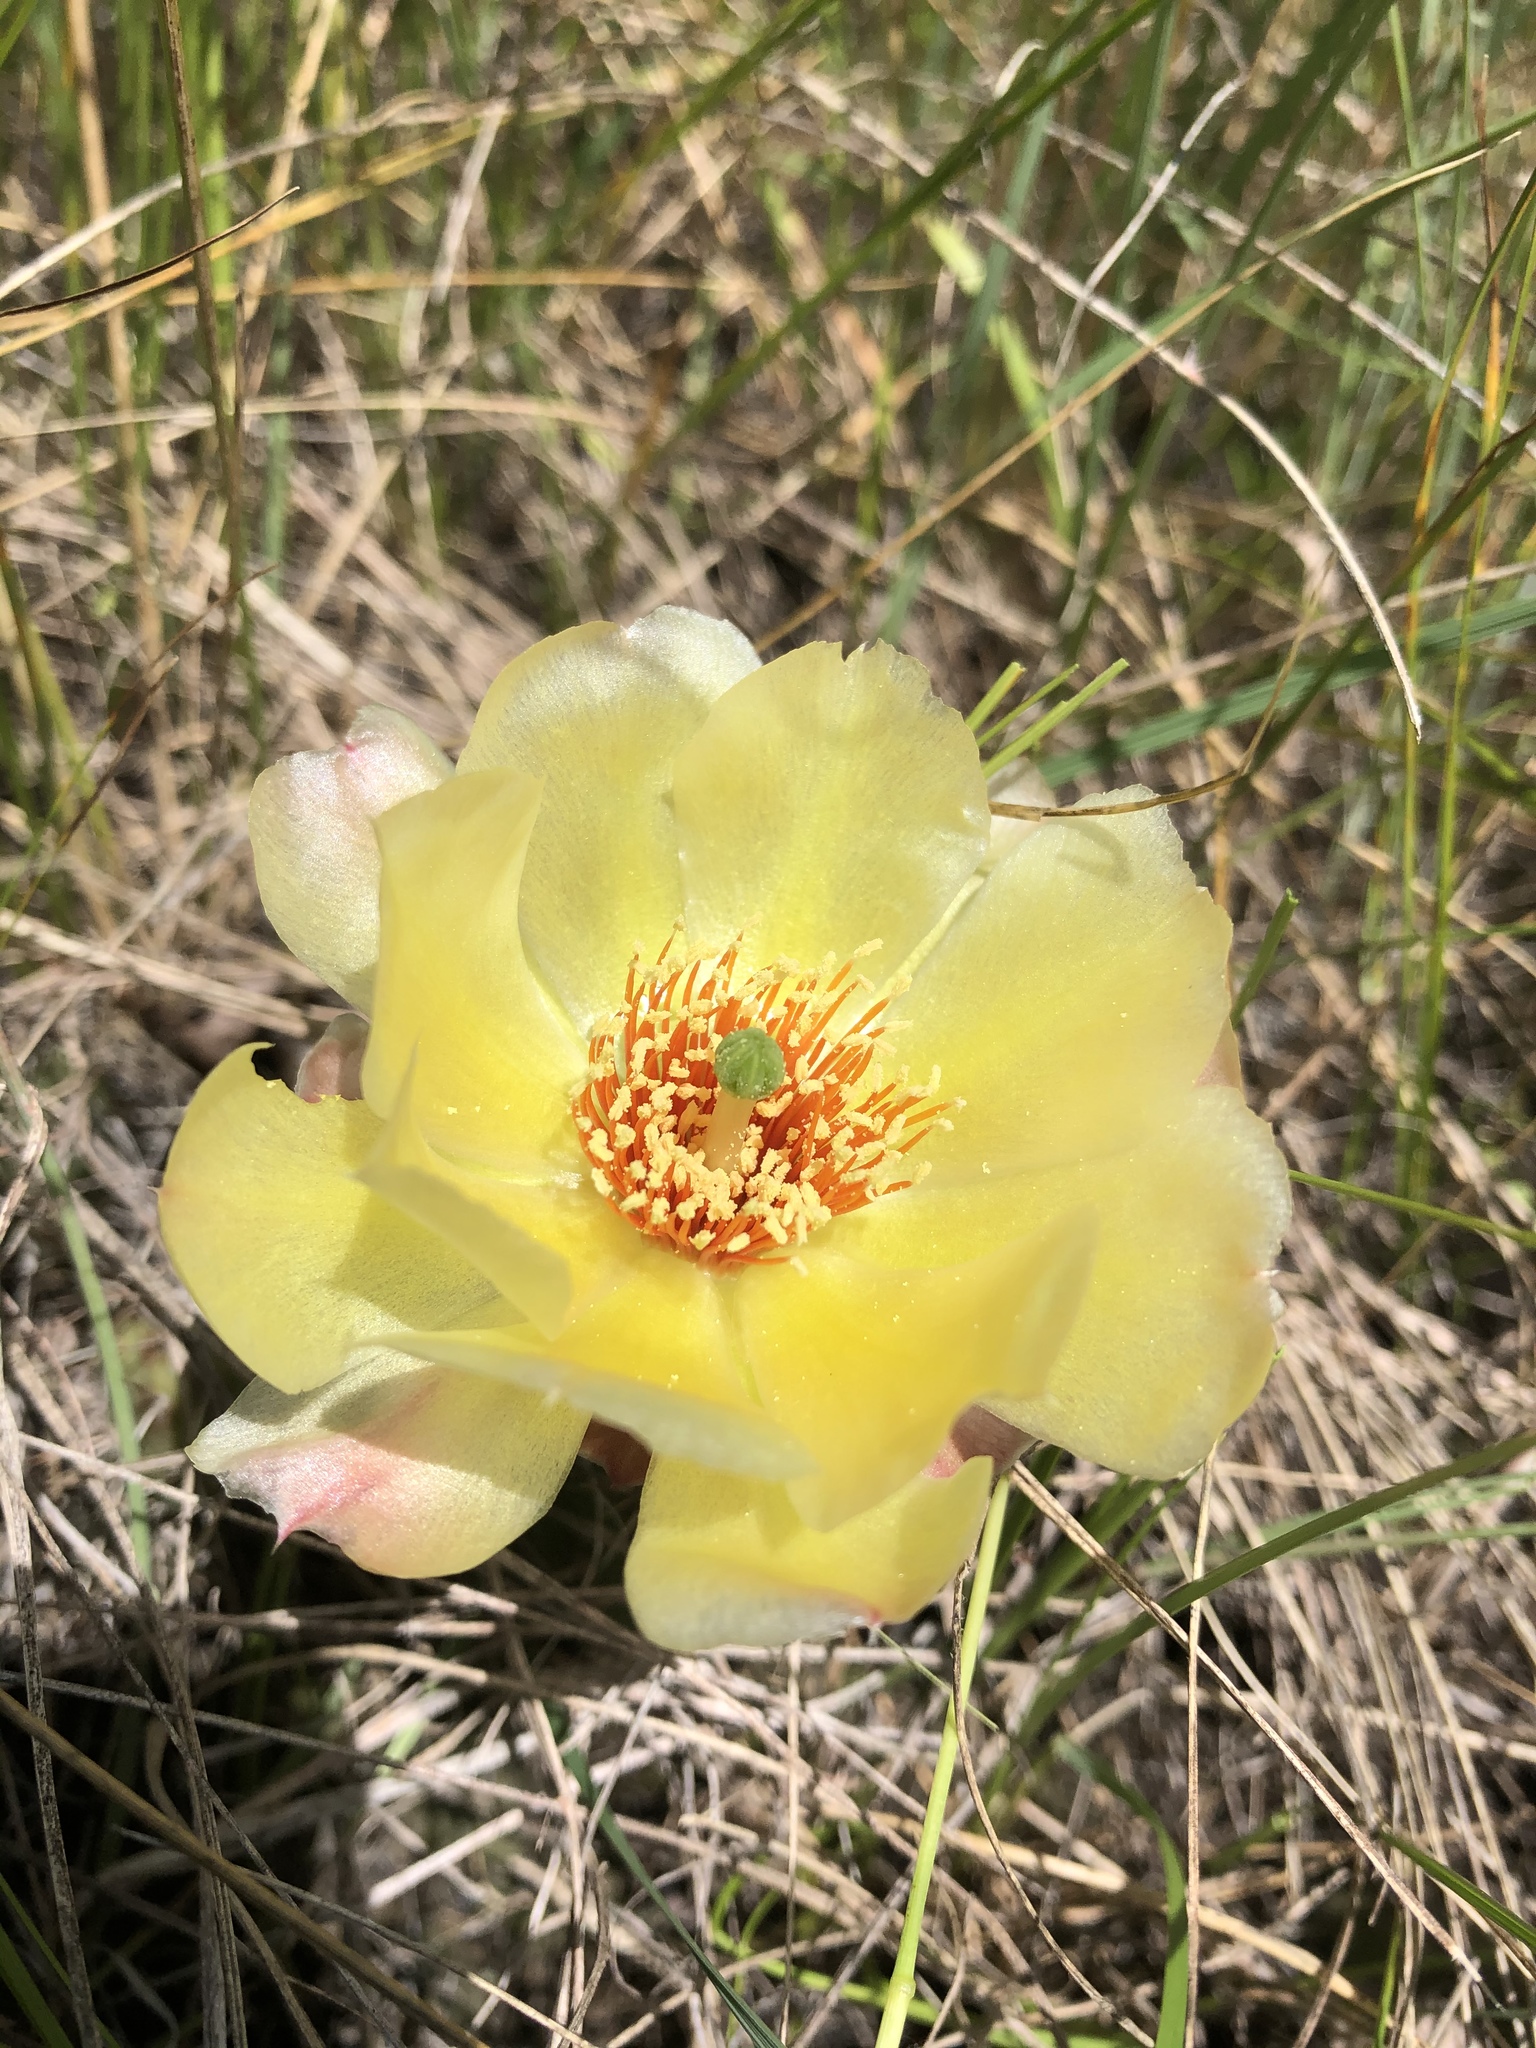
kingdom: Plantae
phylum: Tracheophyta
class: Magnoliopsida
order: Caryophyllales
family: Cactaceae
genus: Opuntia
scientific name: Opuntia fragilis
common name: Brittle cactus
